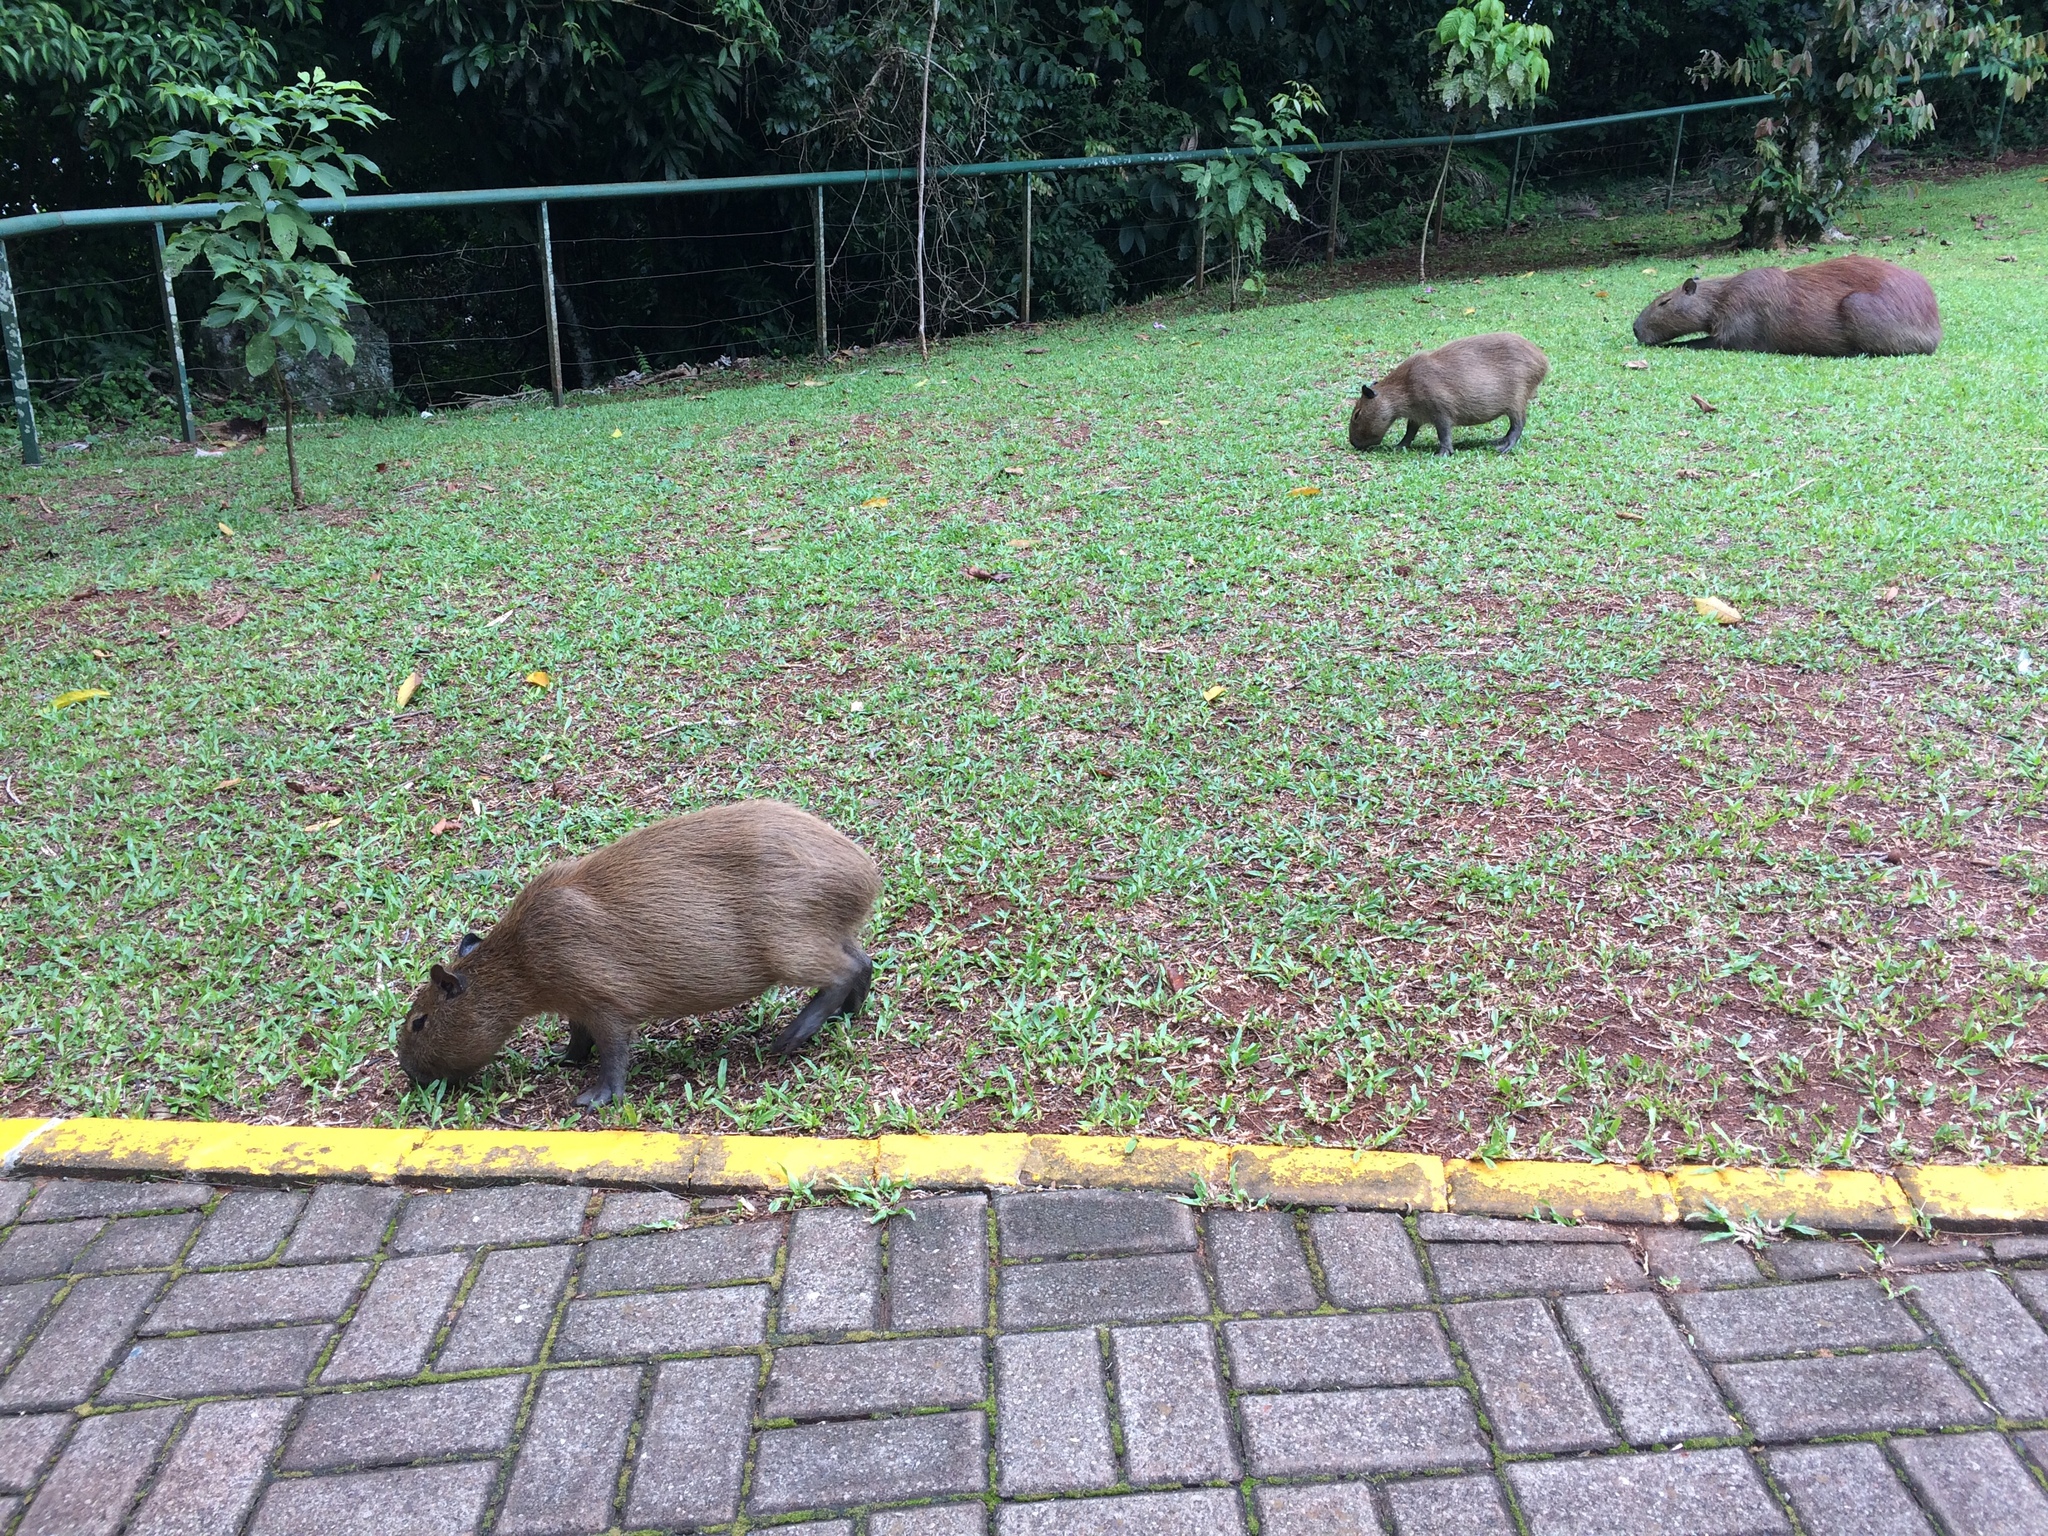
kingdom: Animalia
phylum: Chordata
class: Mammalia
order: Rodentia
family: Caviidae
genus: Hydrochoerus
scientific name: Hydrochoerus hydrochaeris
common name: Capybara
